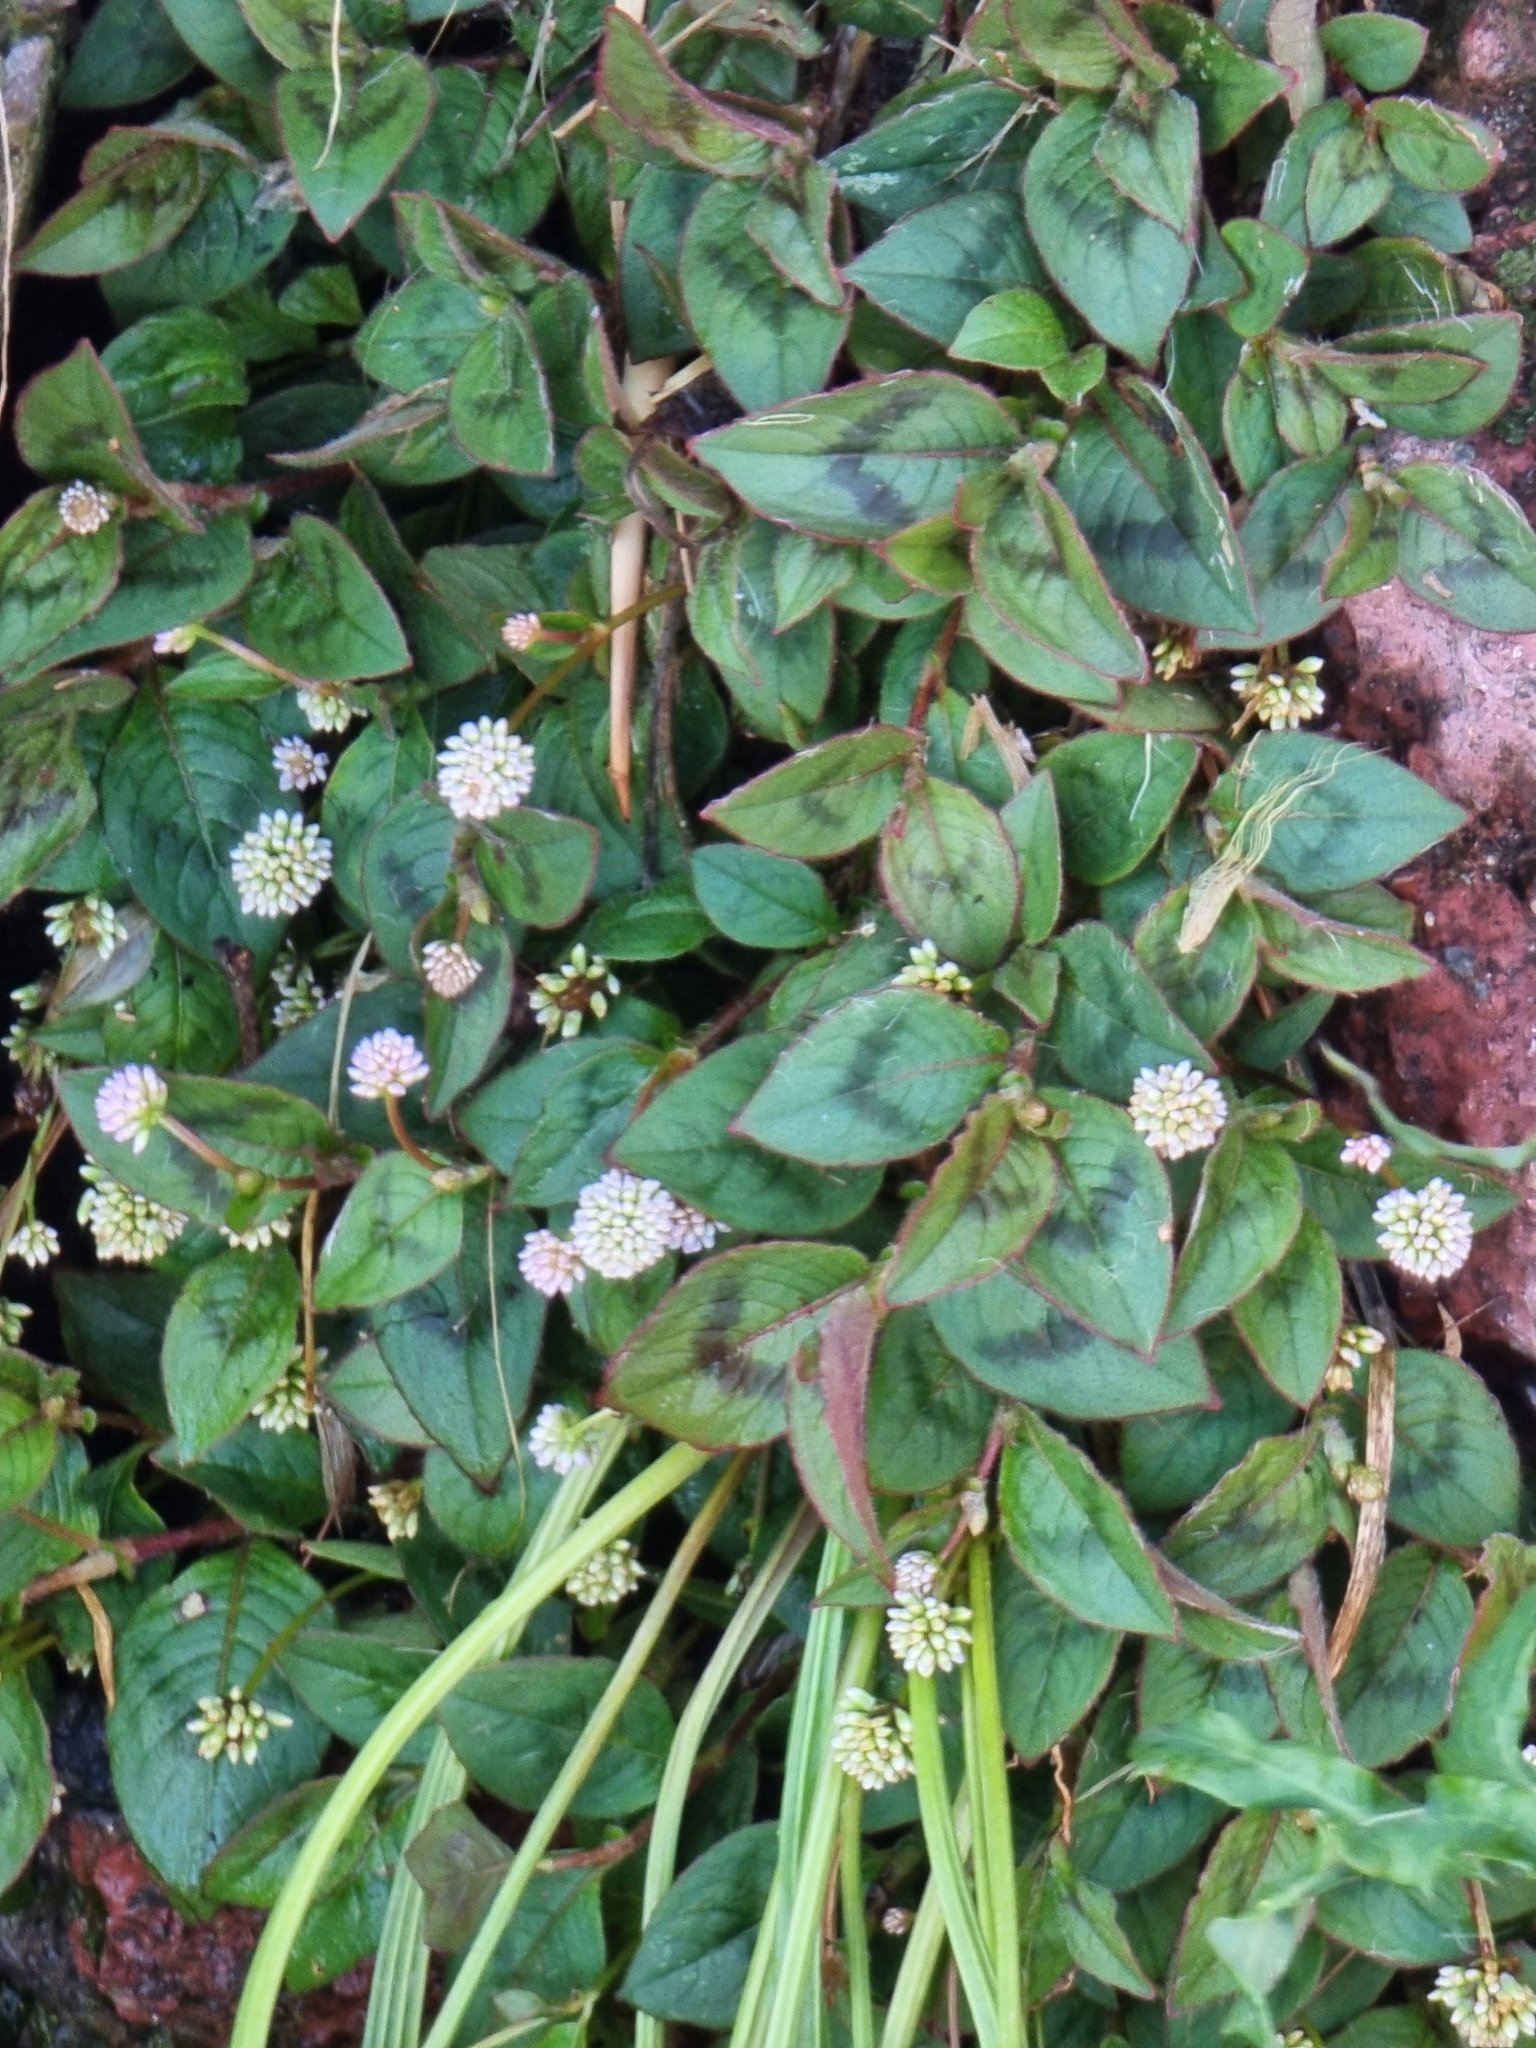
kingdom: Plantae
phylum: Tracheophyta
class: Magnoliopsida
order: Caryophyllales
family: Polygonaceae
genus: Persicaria
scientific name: Persicaria capitata
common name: Pinkhead smartweed
